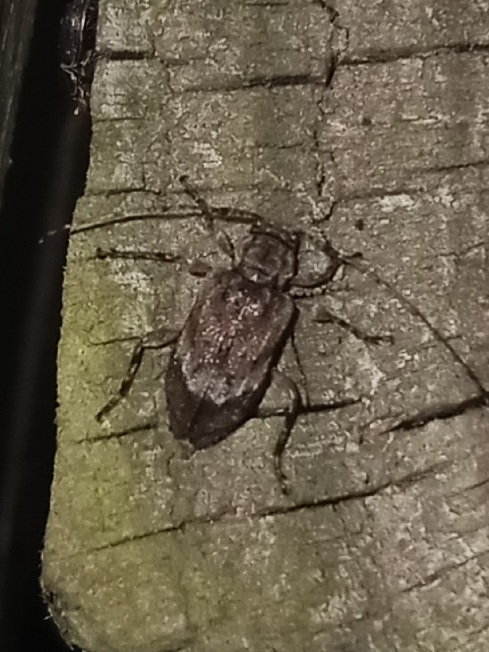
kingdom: Animalia
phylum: Arthropoda
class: Insecta
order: Coleoptera
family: Cerambycidae
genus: Astylopsis
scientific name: Astylopsis arcuata
